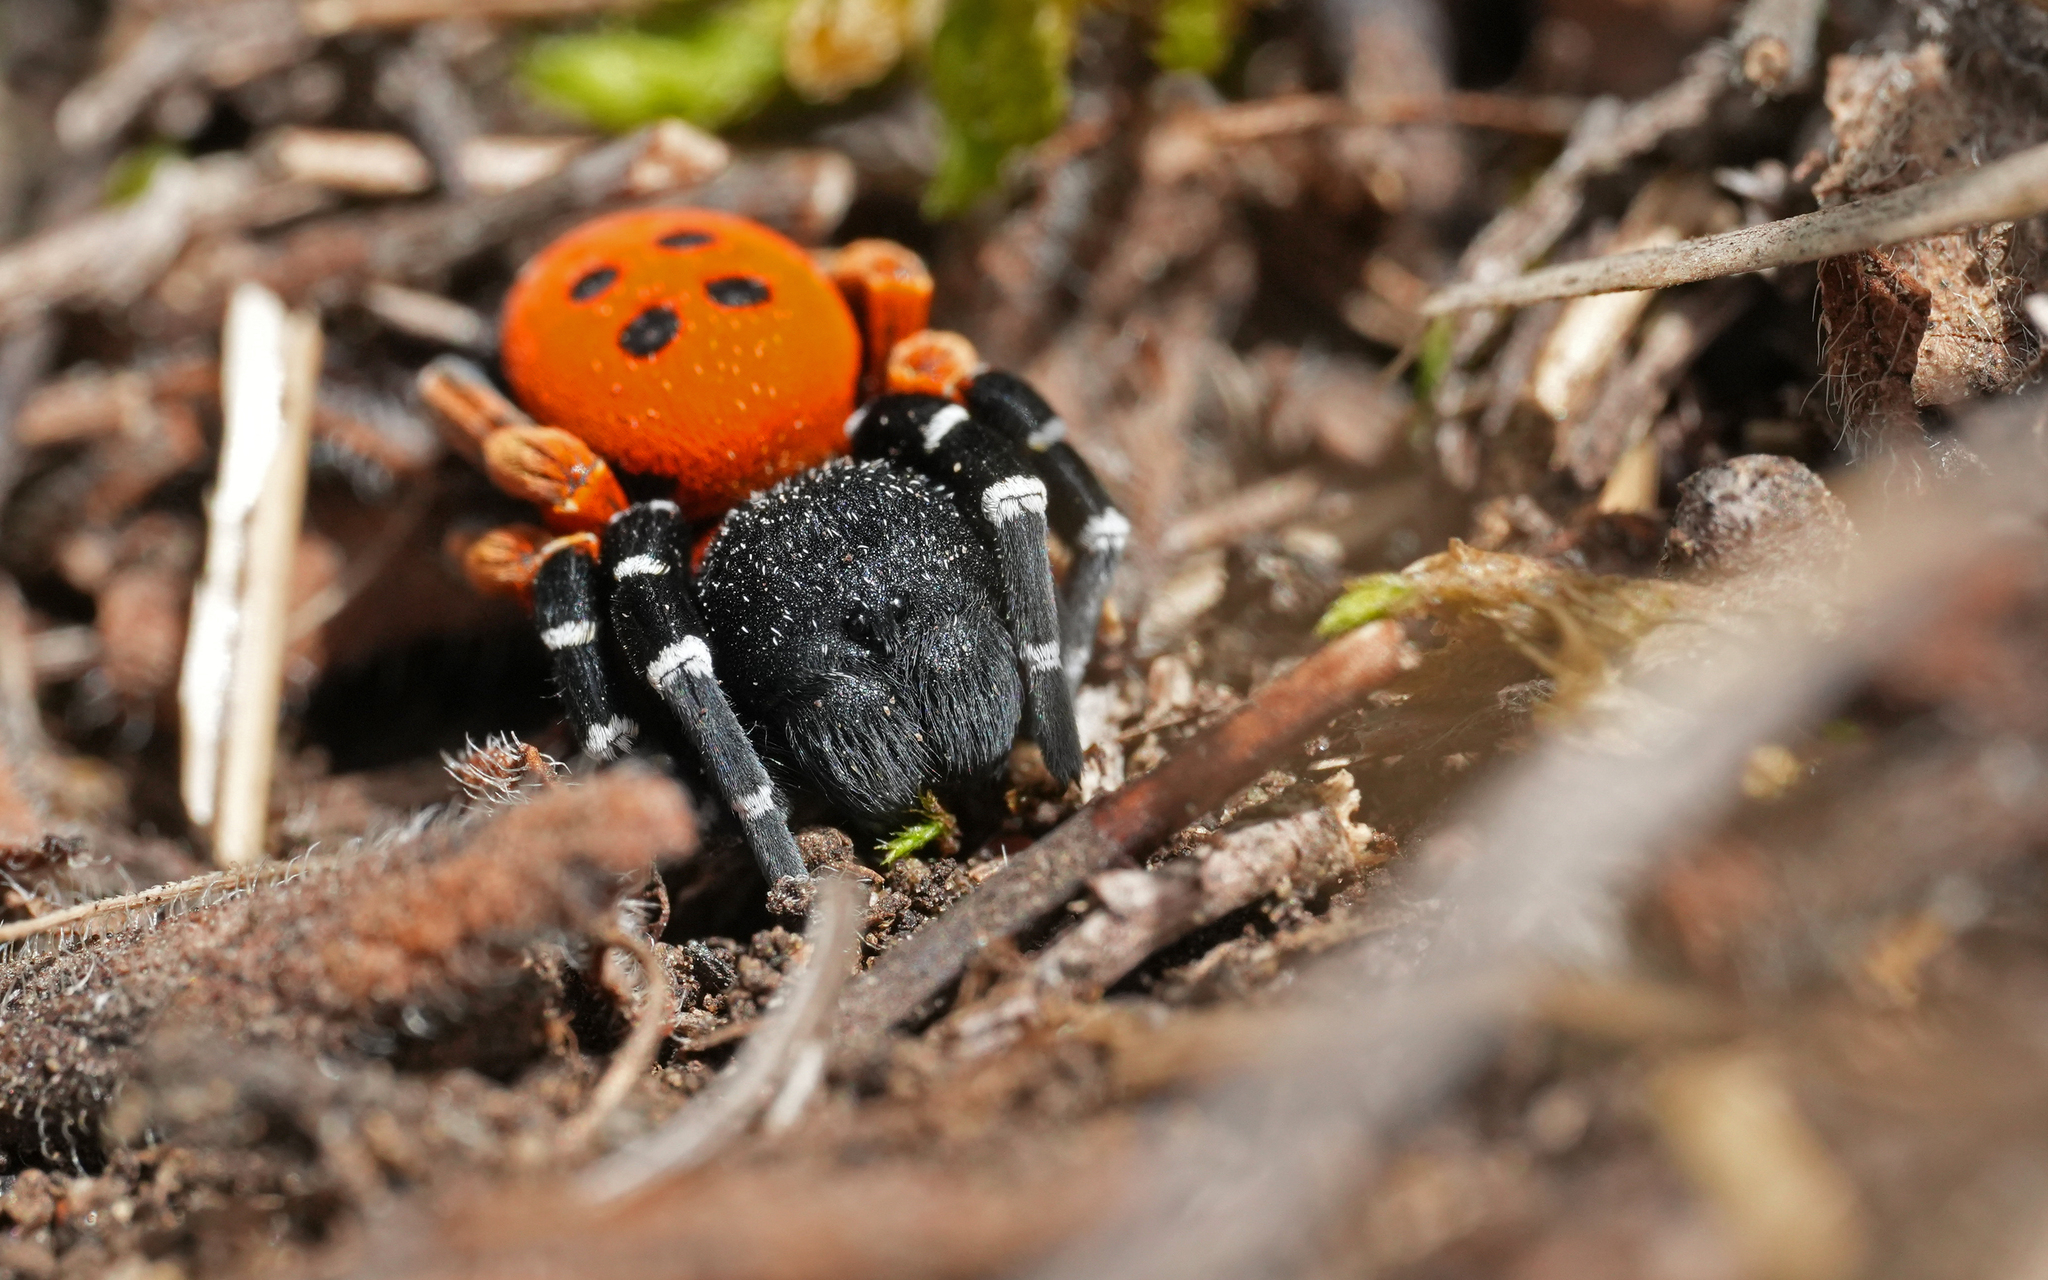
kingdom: Animalia
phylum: Arthropoda
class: Arachnida
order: Araneae
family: Eresidae
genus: Eresus
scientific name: Eresus moravicus
